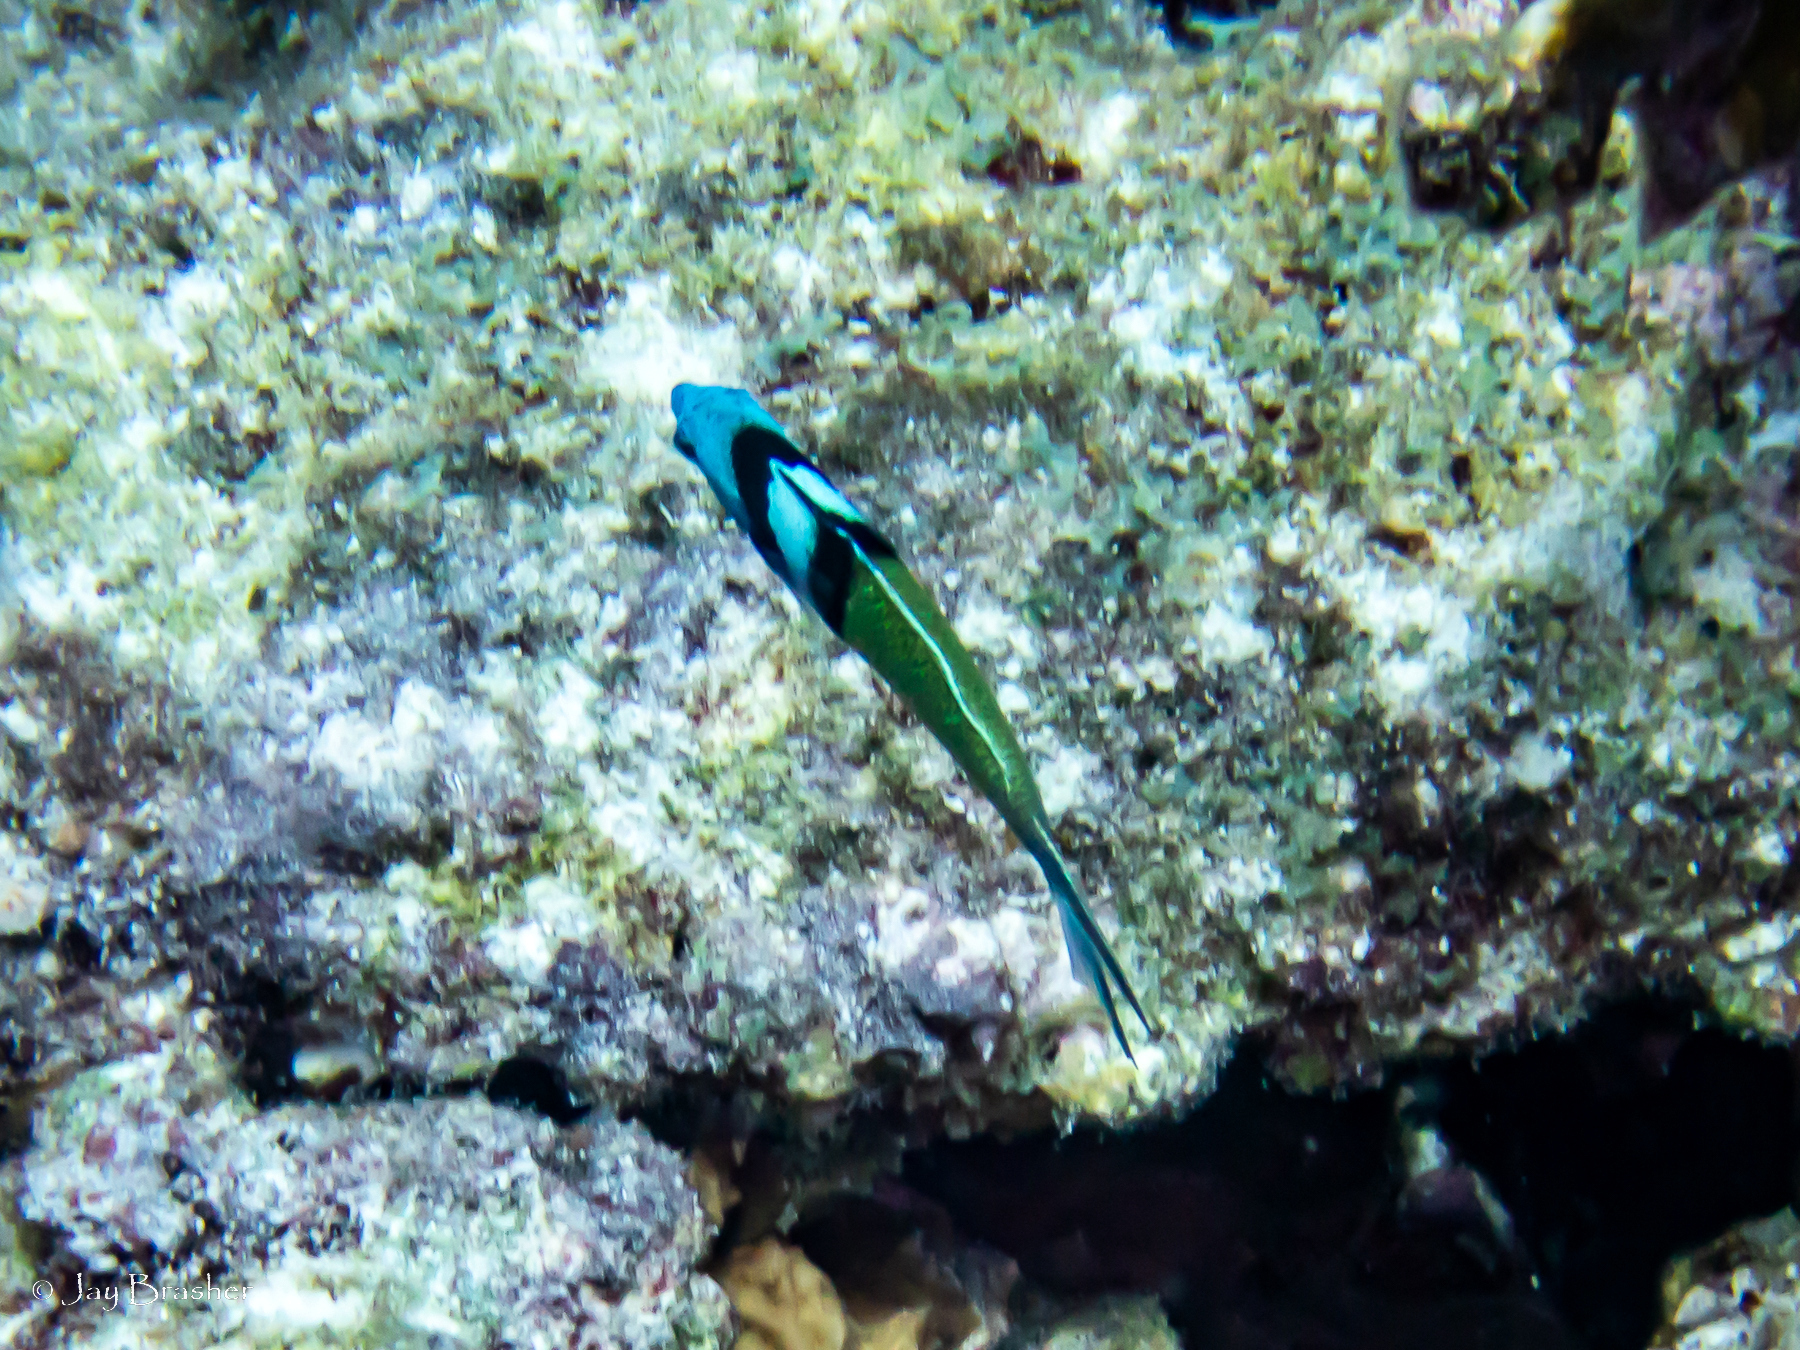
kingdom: Animalia
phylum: Chordata
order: Perciformes
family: Labridae
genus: Thalassoma
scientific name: Thalassoma bifasciatum
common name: Bluehead wrasse
